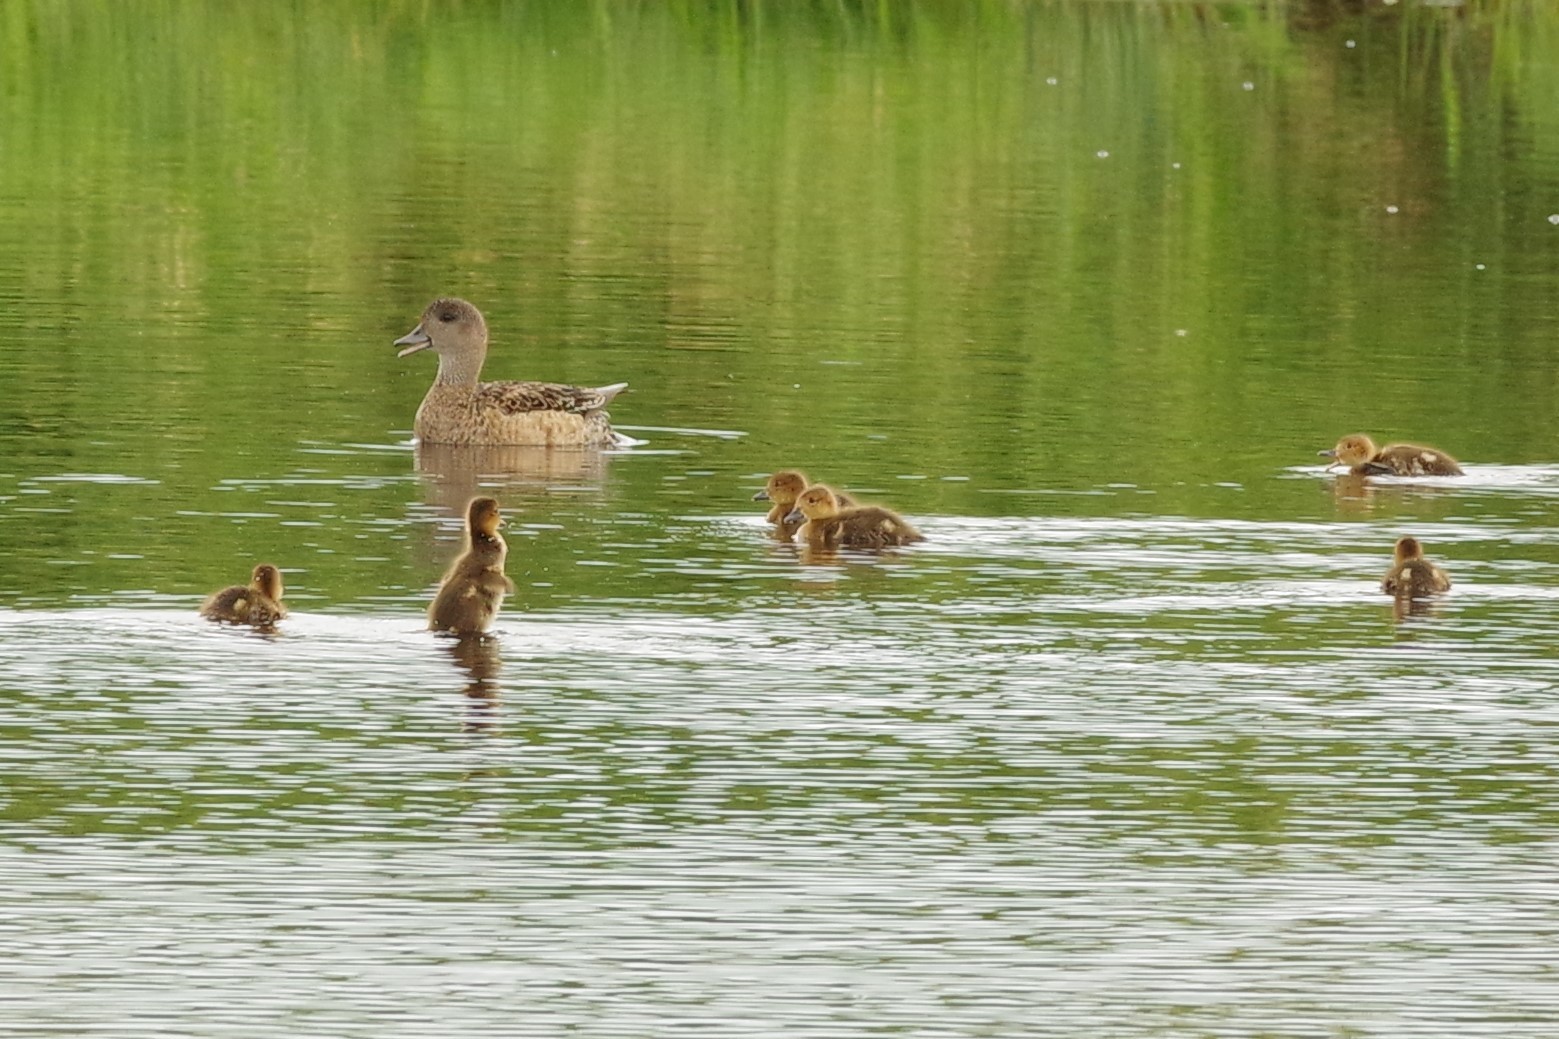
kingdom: Animalia
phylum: Chordata
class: Aves
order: Anseriformes
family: Anatidae
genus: Mareca
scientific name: Mareca americana
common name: American wigeon
